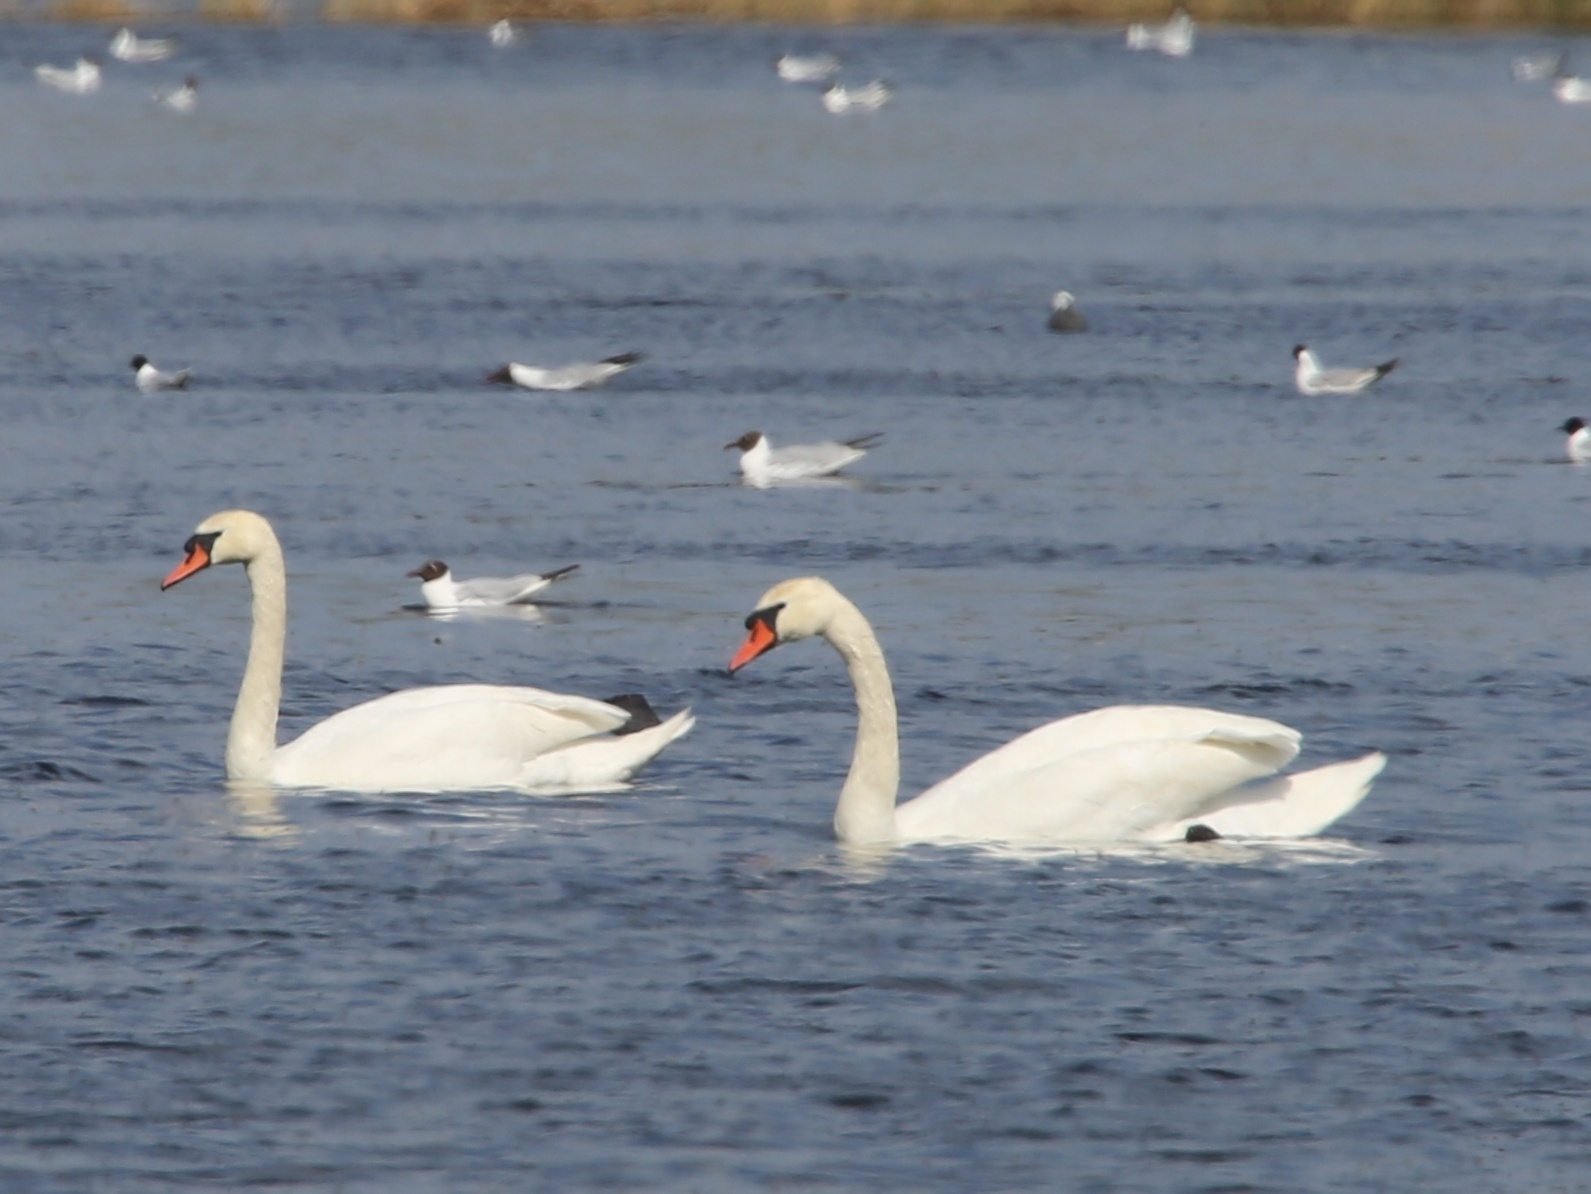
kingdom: Animalia
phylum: Chordata
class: Aves
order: Anseriformes
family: Anatidae
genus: Cygnus
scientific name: Cygnus olor
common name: Mute swan
